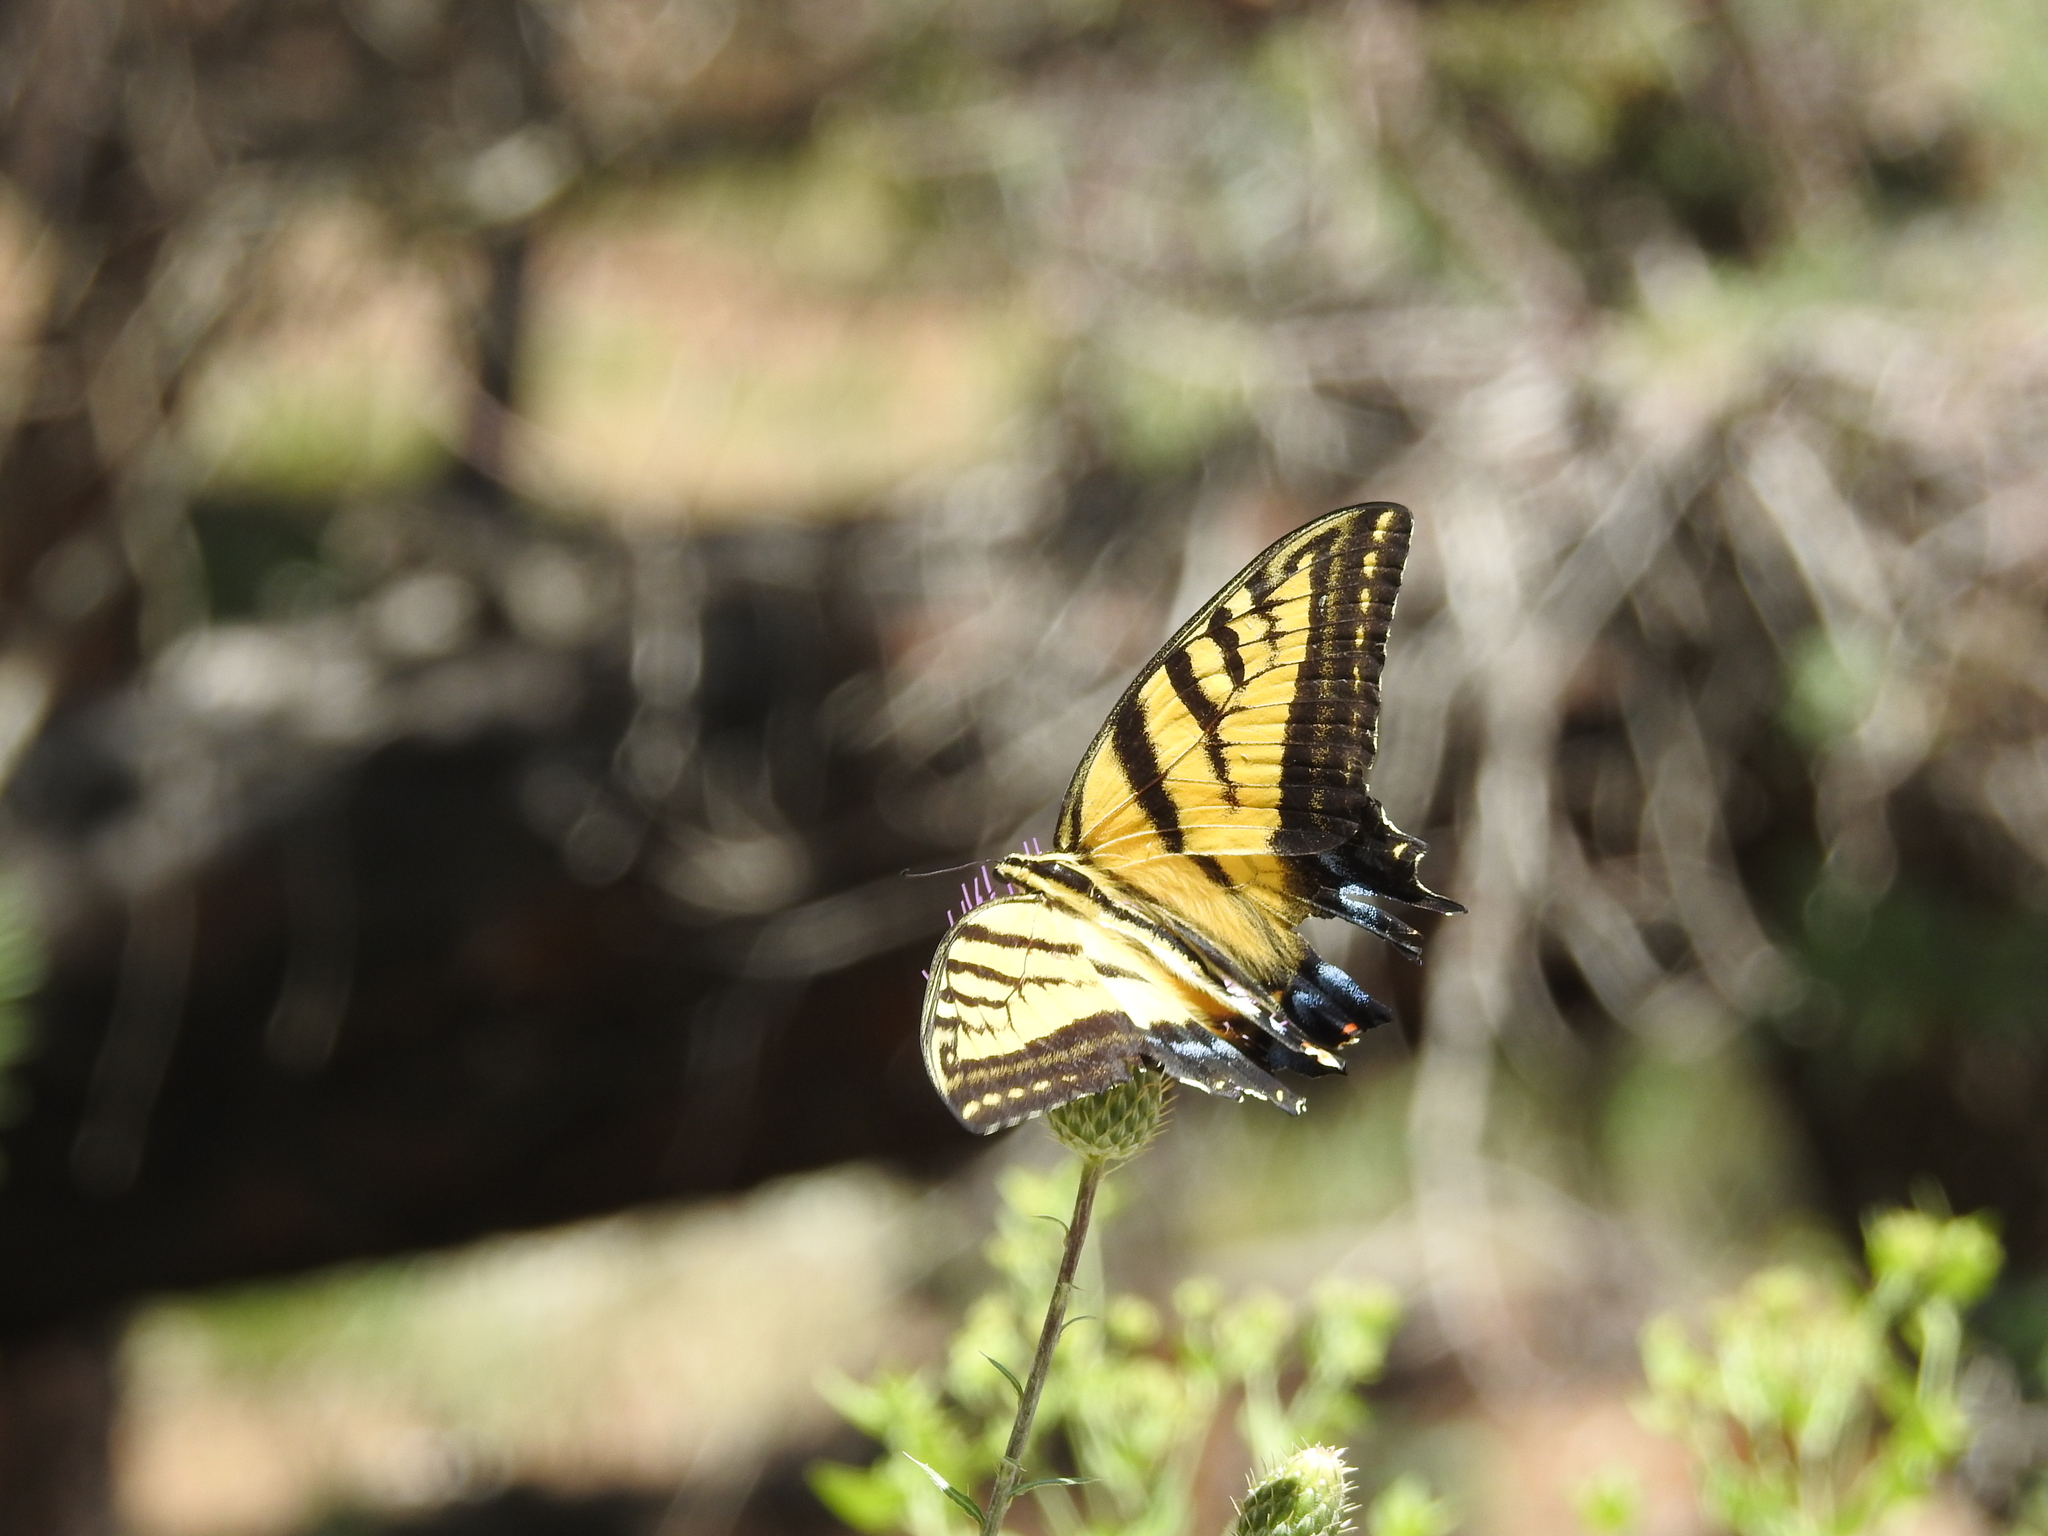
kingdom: Animalia
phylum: Arthropoda
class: Insecta
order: Lepidoptera
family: Papilionidae
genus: Papilio
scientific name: Papilio multicaudata
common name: Two-tailed tiger swallowtail
